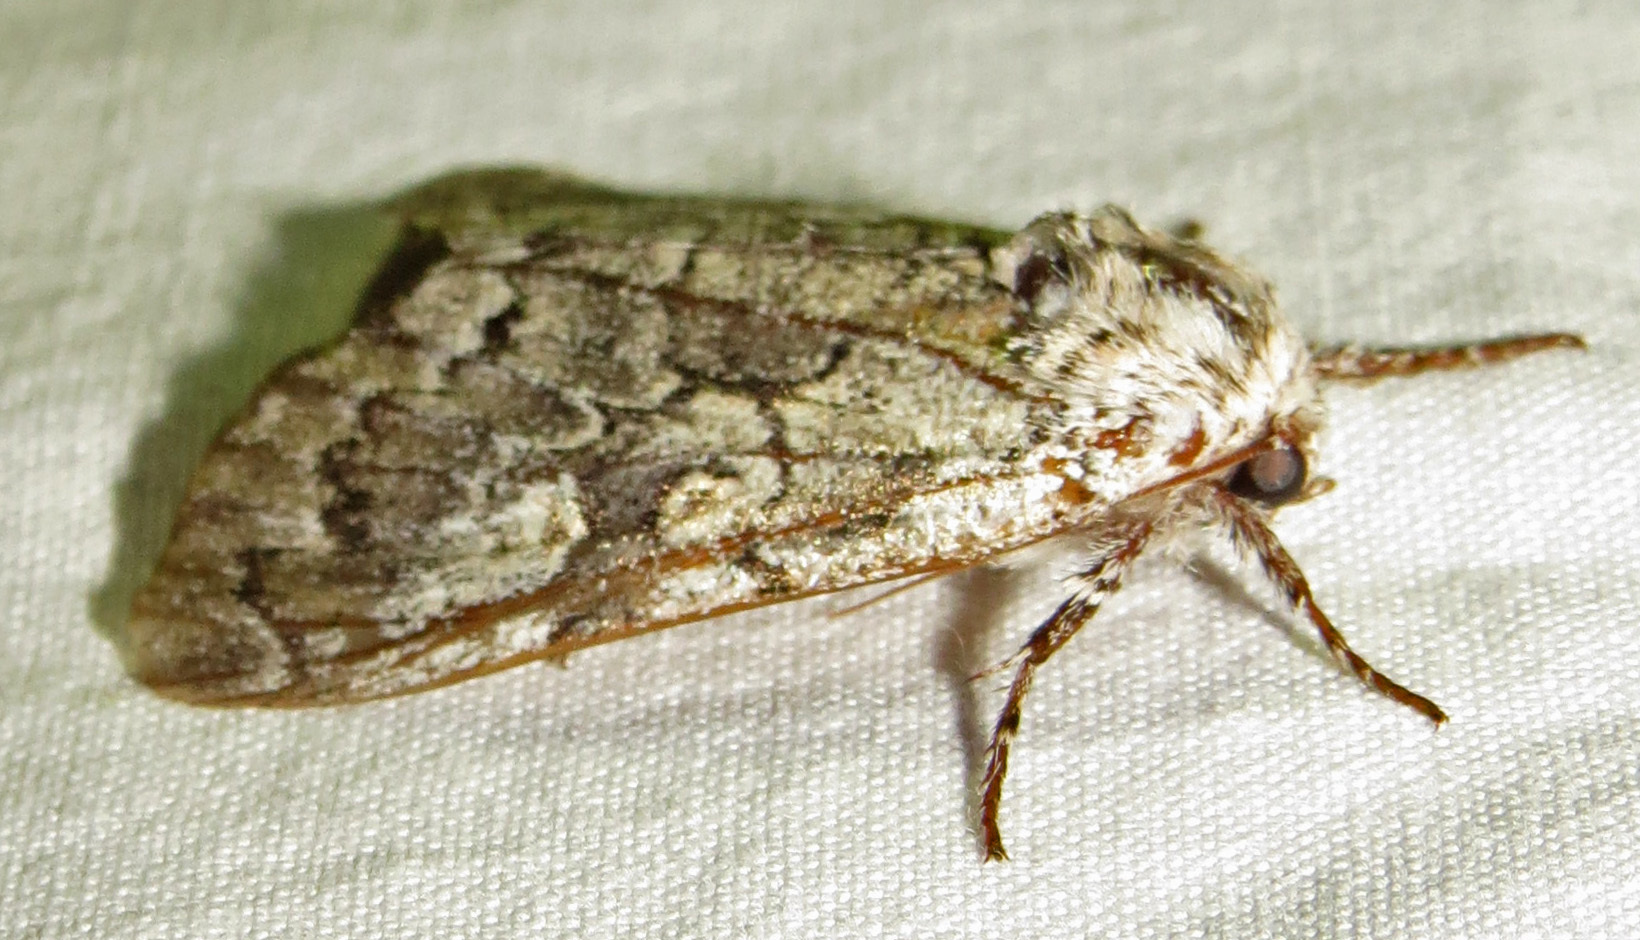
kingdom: Animalia
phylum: Arthropoda
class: Insecta
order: Lepidoptera
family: Noctuidae
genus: Charadra
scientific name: Charadra deridens
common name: Marbled tuffet
